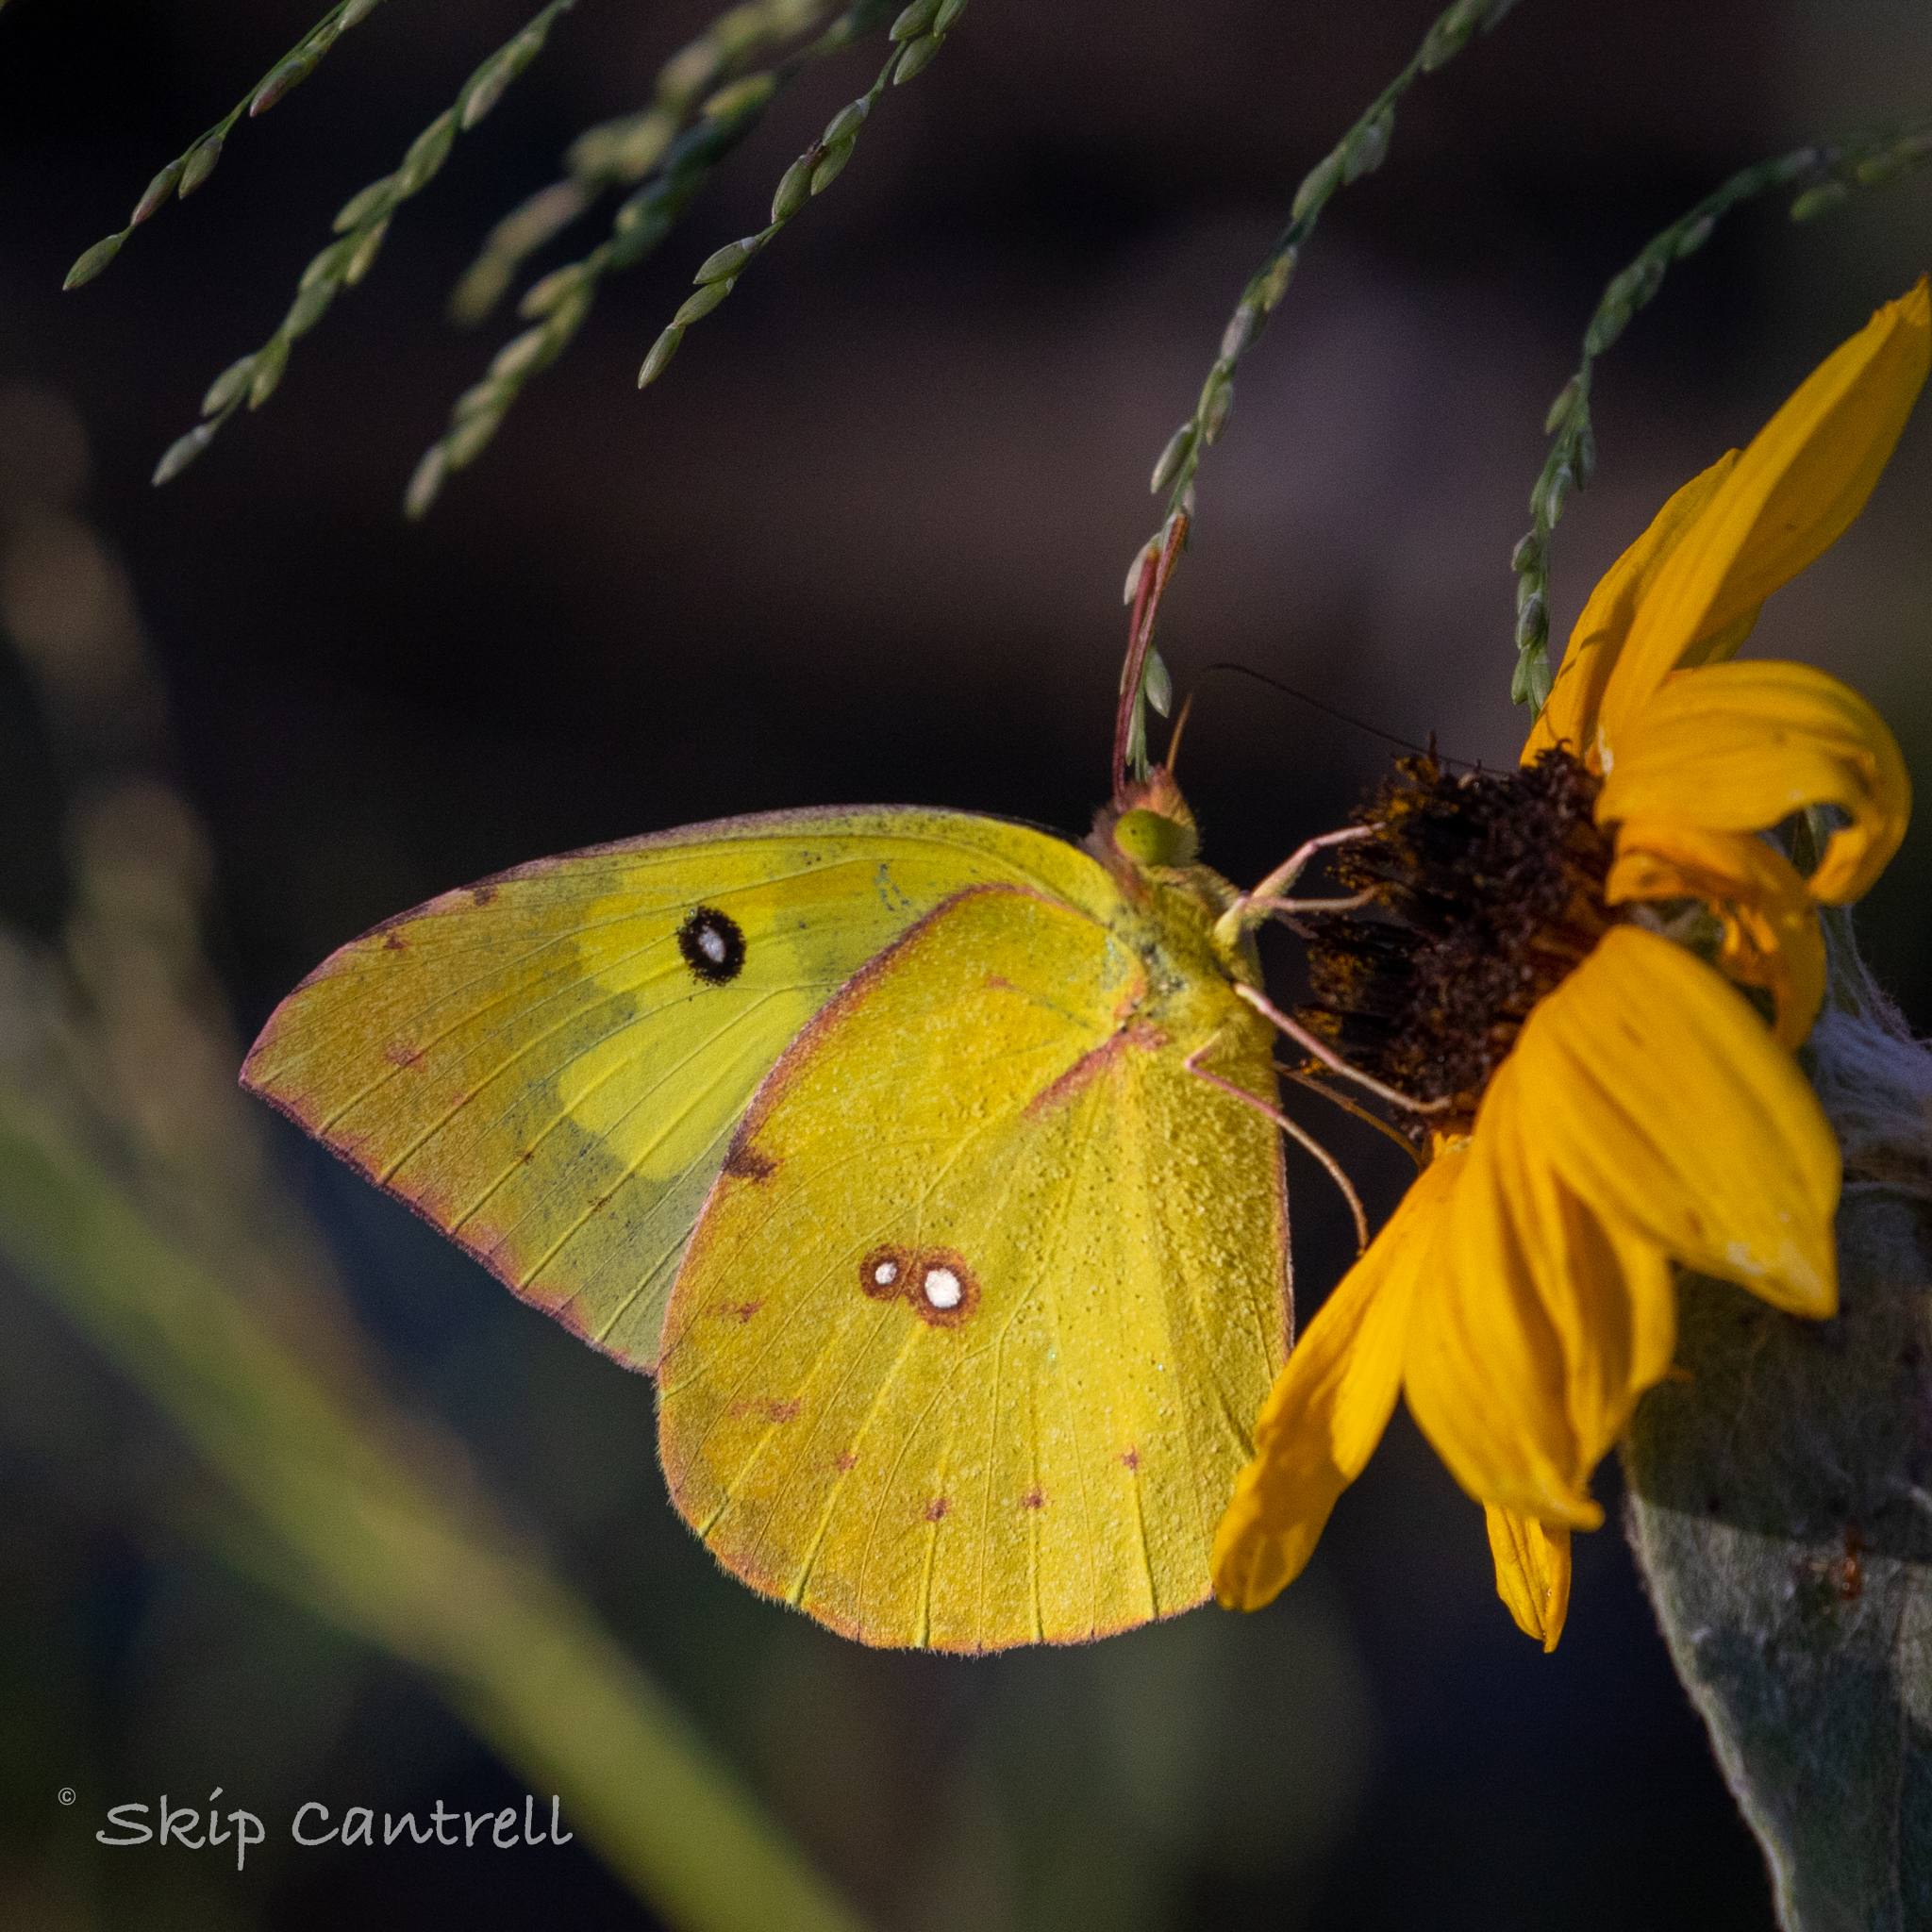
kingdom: Animalia
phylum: Arthropoda
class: Insecta
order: Lepidoptera
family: Pieridae
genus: Zerene
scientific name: Zerene cesonia
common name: Southern dogface
